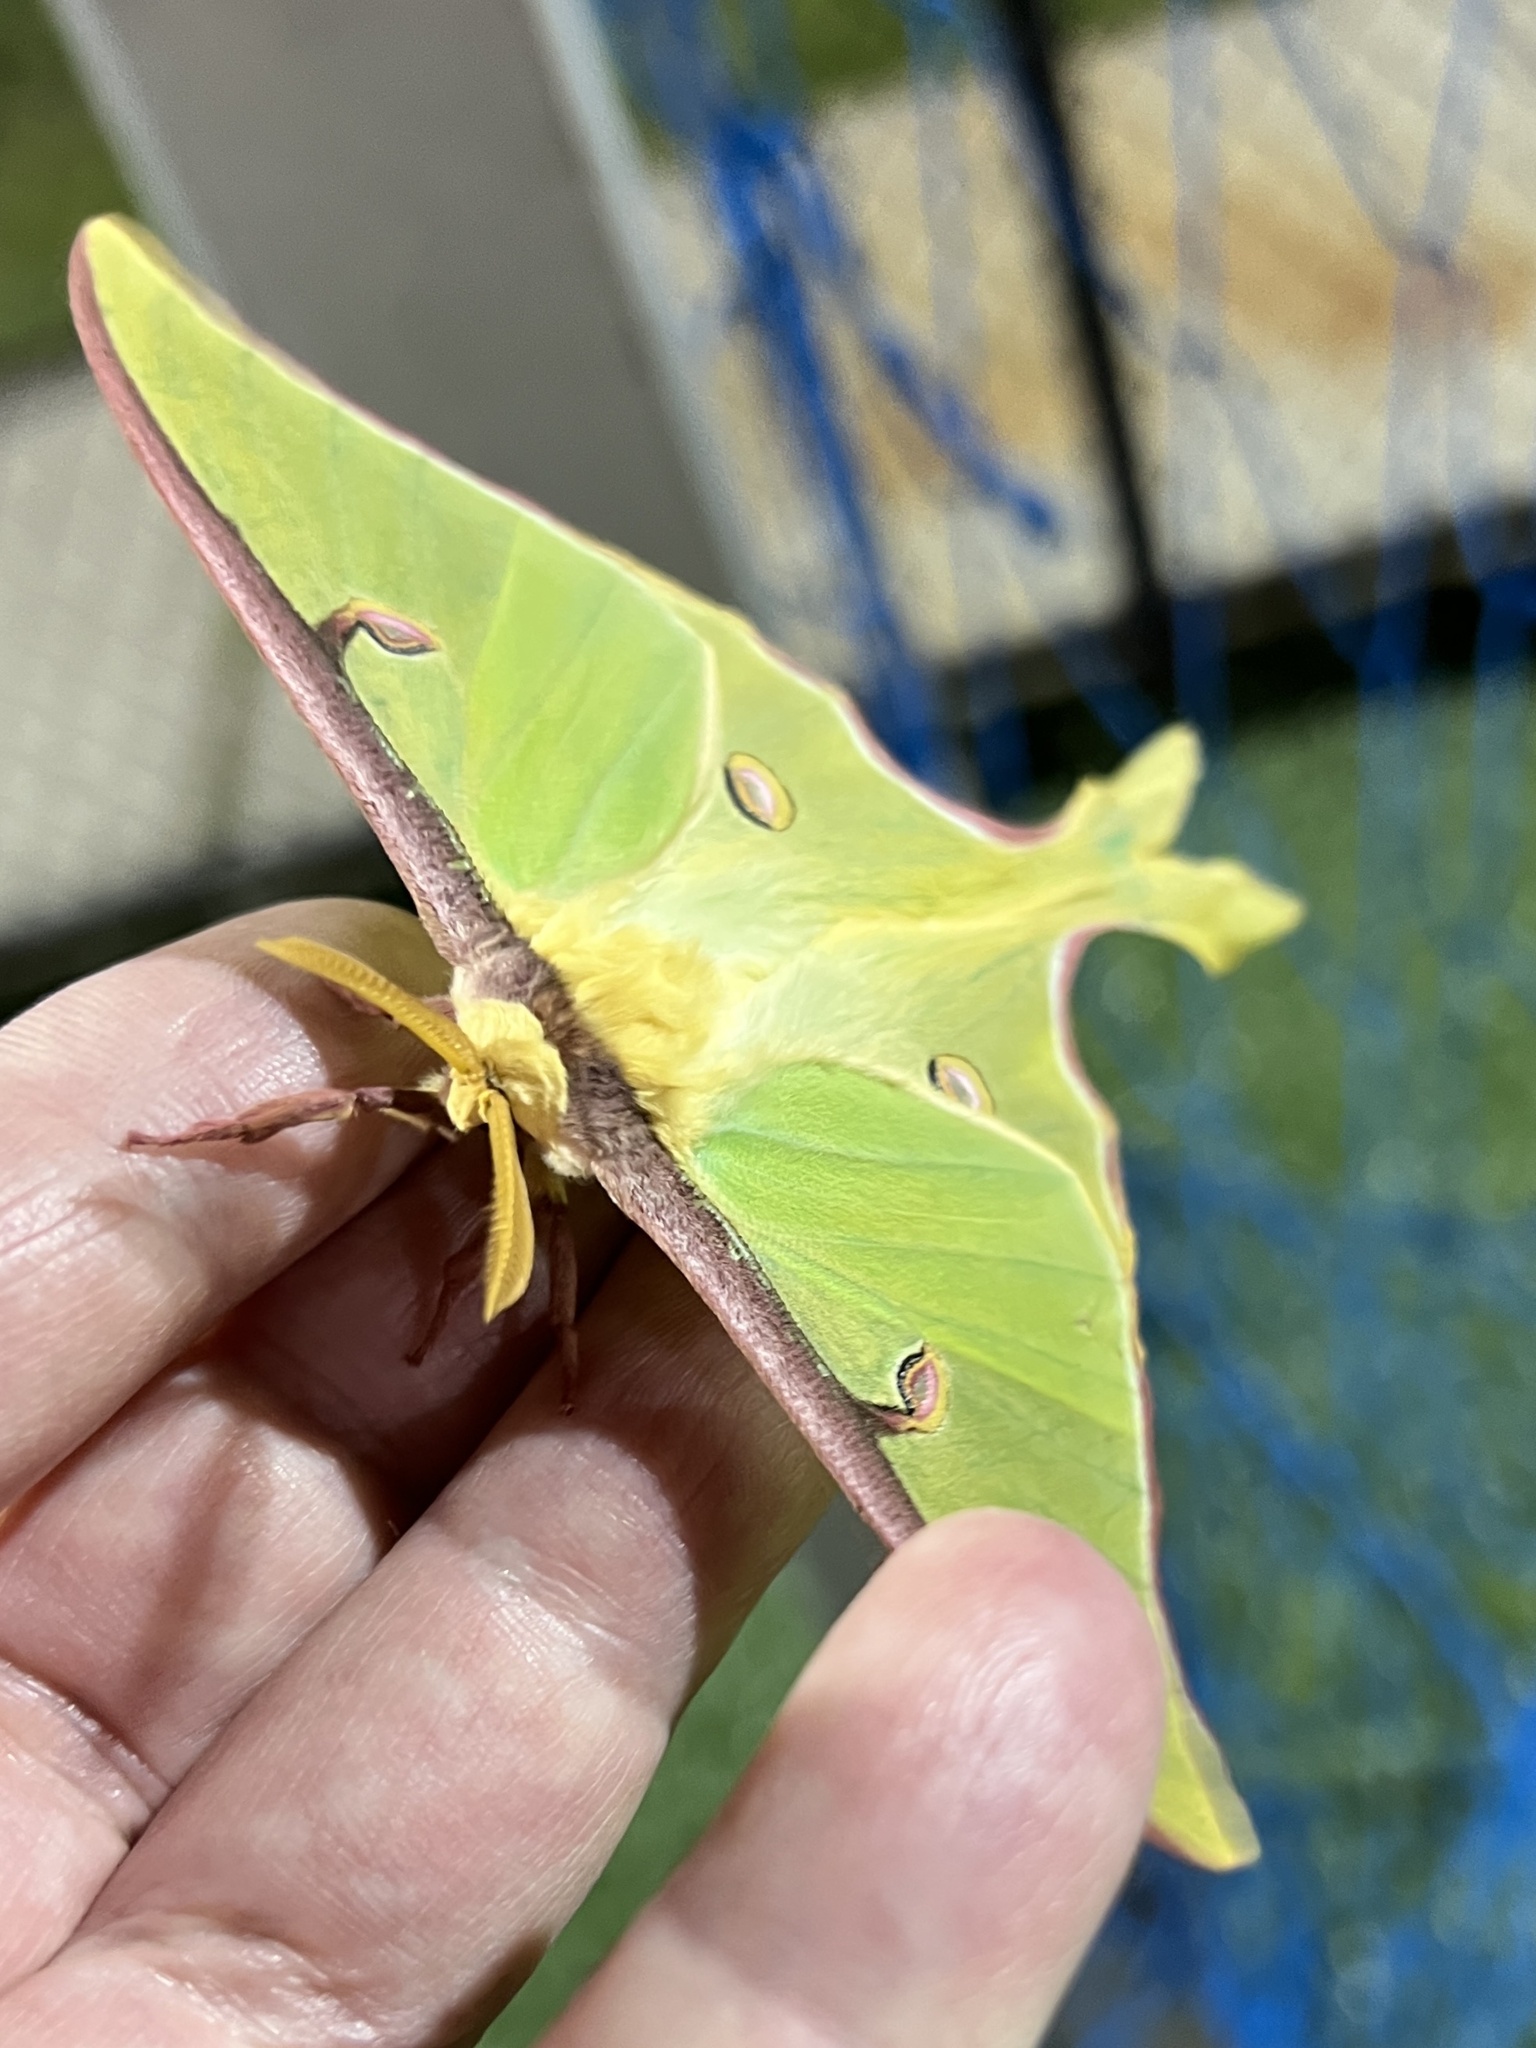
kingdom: Animalia
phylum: Arthropoda
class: Insecta
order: Lepidoptera
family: Saturniidae
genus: Actias
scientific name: Actias luna
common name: Luna moth
